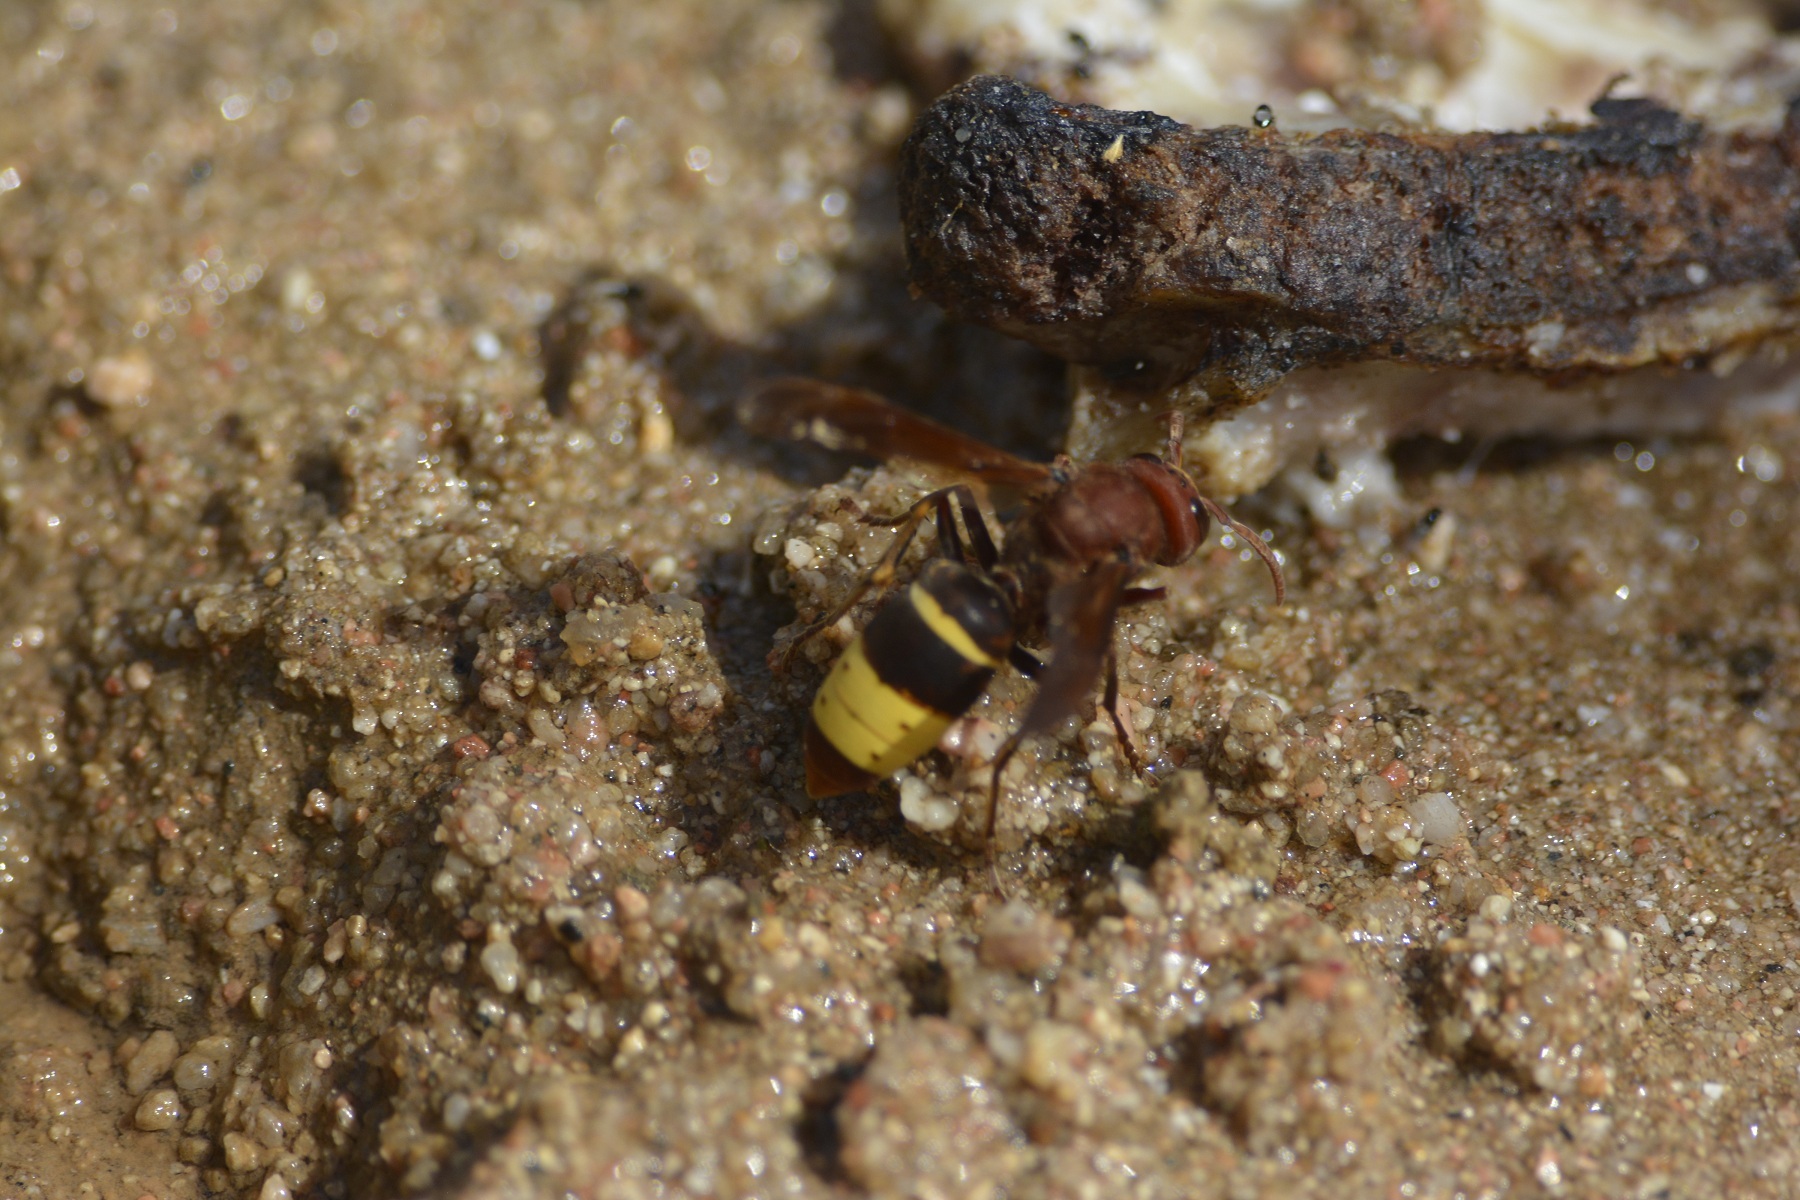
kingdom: Animalia
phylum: Arthropoda
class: Insecta
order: Hymenoptera
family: Vespidae
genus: Vespa
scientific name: Vespa orientalis
